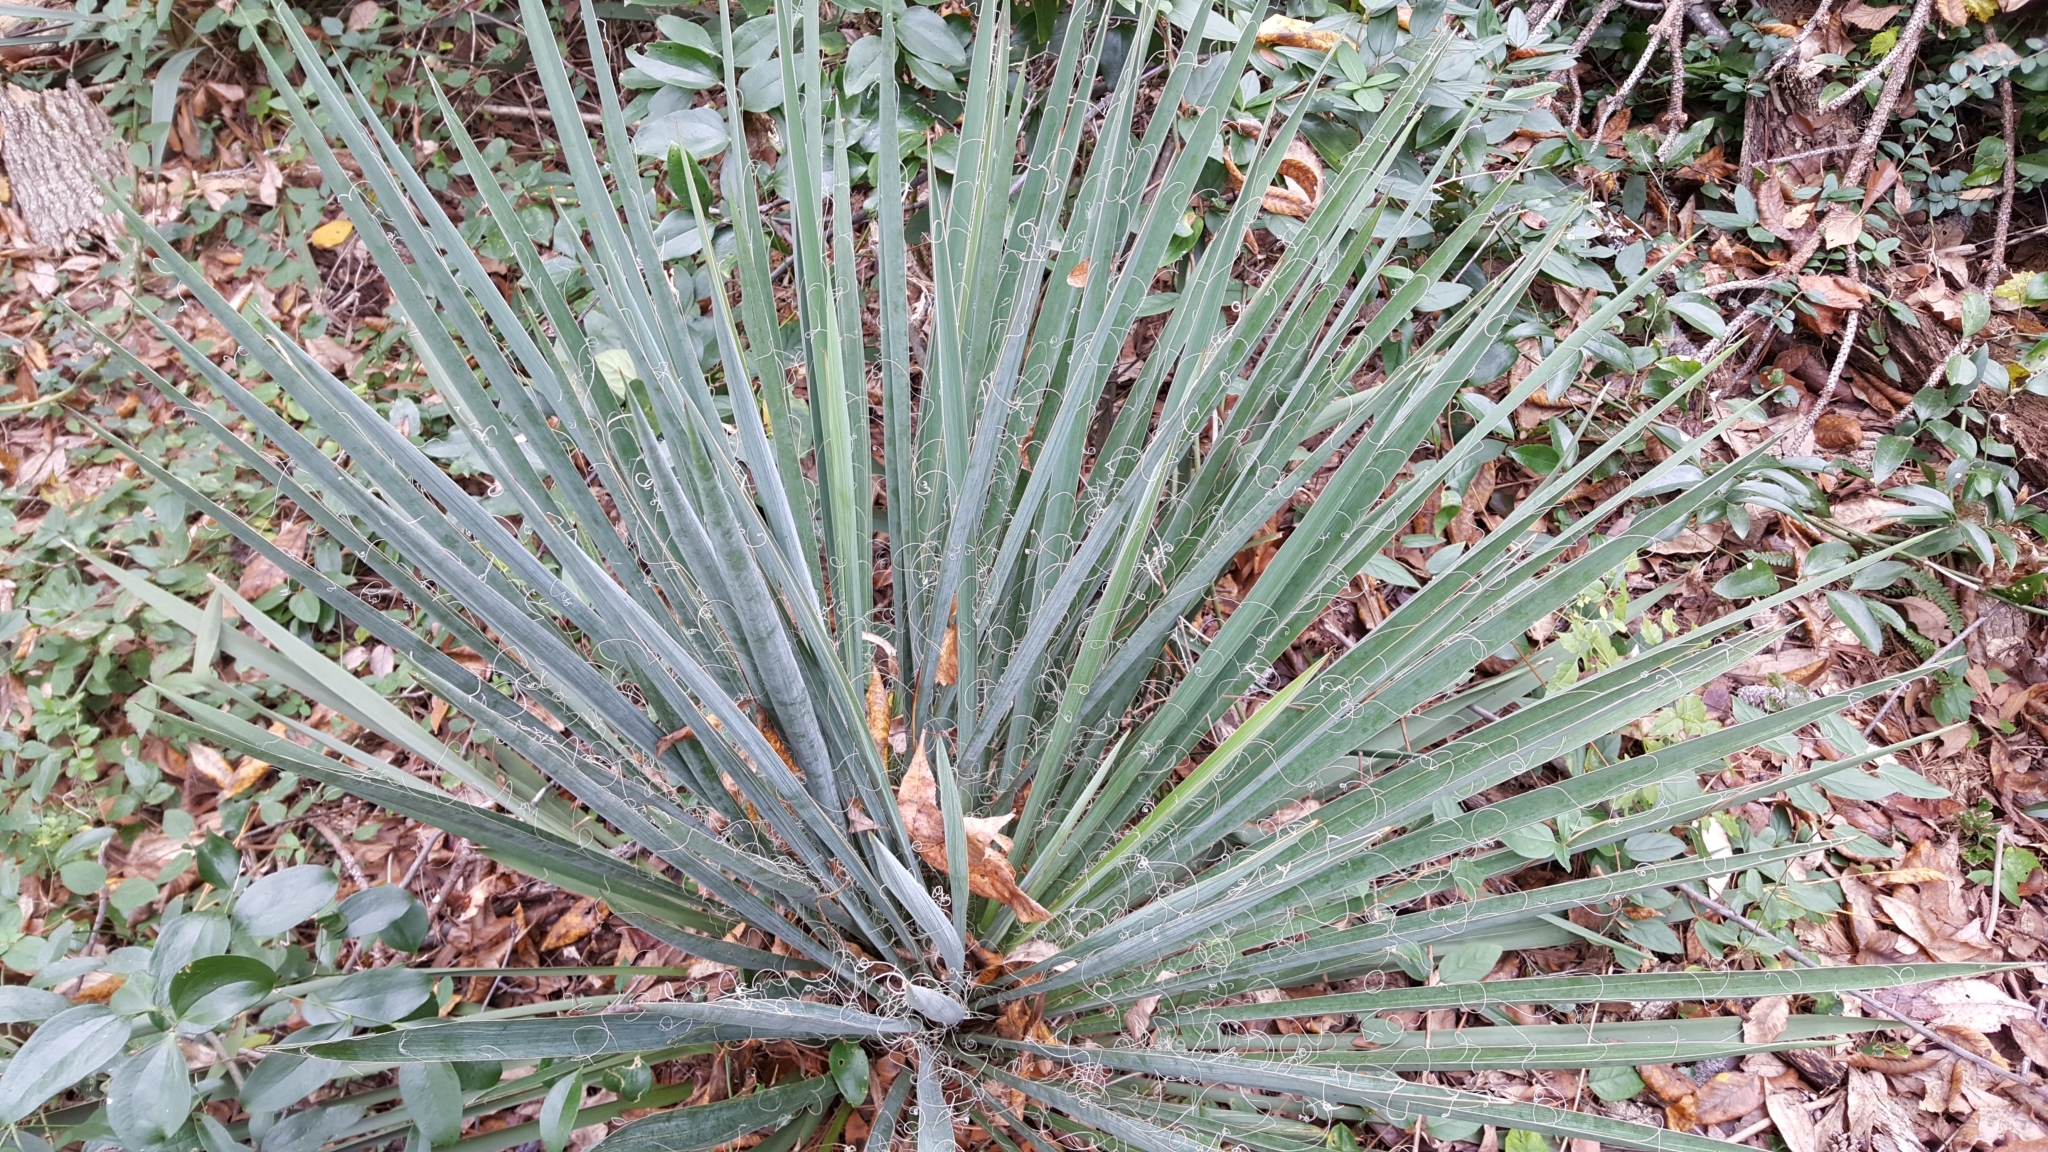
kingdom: Plantae
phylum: Tracheophyta
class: Liliopsida
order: Asparagales
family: Asparagaceae
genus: Yucca
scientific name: Yucca filamentosa
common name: Adam's-needle
